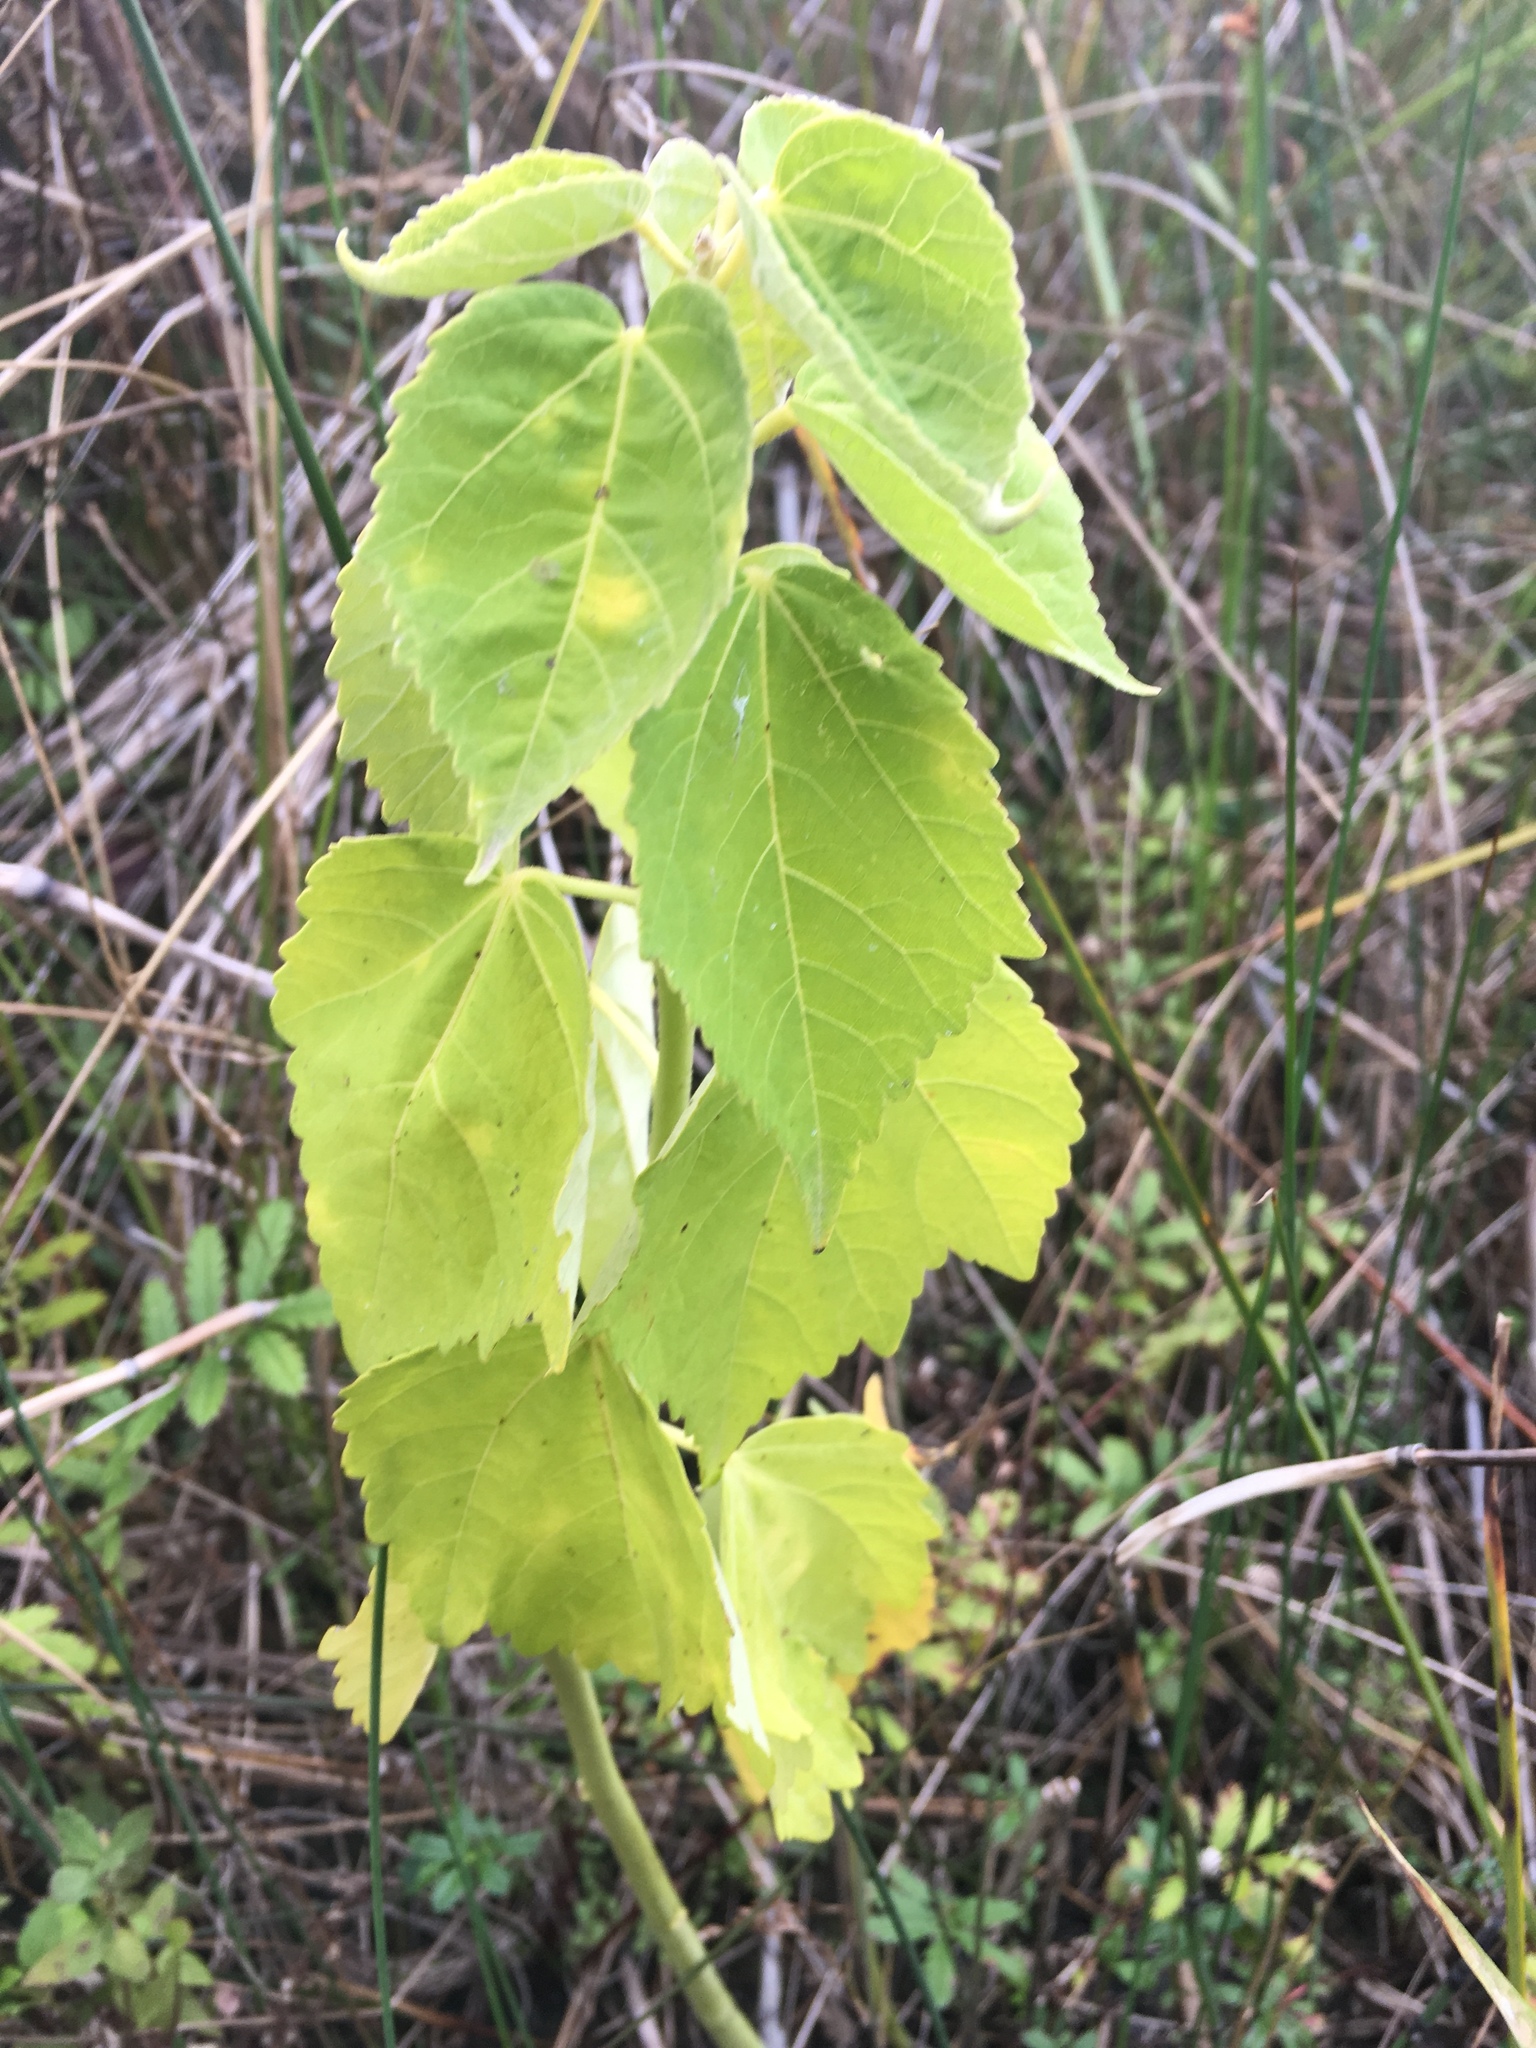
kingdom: Plantae
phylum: Tracheophyta
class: Magnoliopsida
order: Malvales
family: Malvaceae
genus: Hibiscus
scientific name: Hibiscus moscheutos
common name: Common rose-mallow
